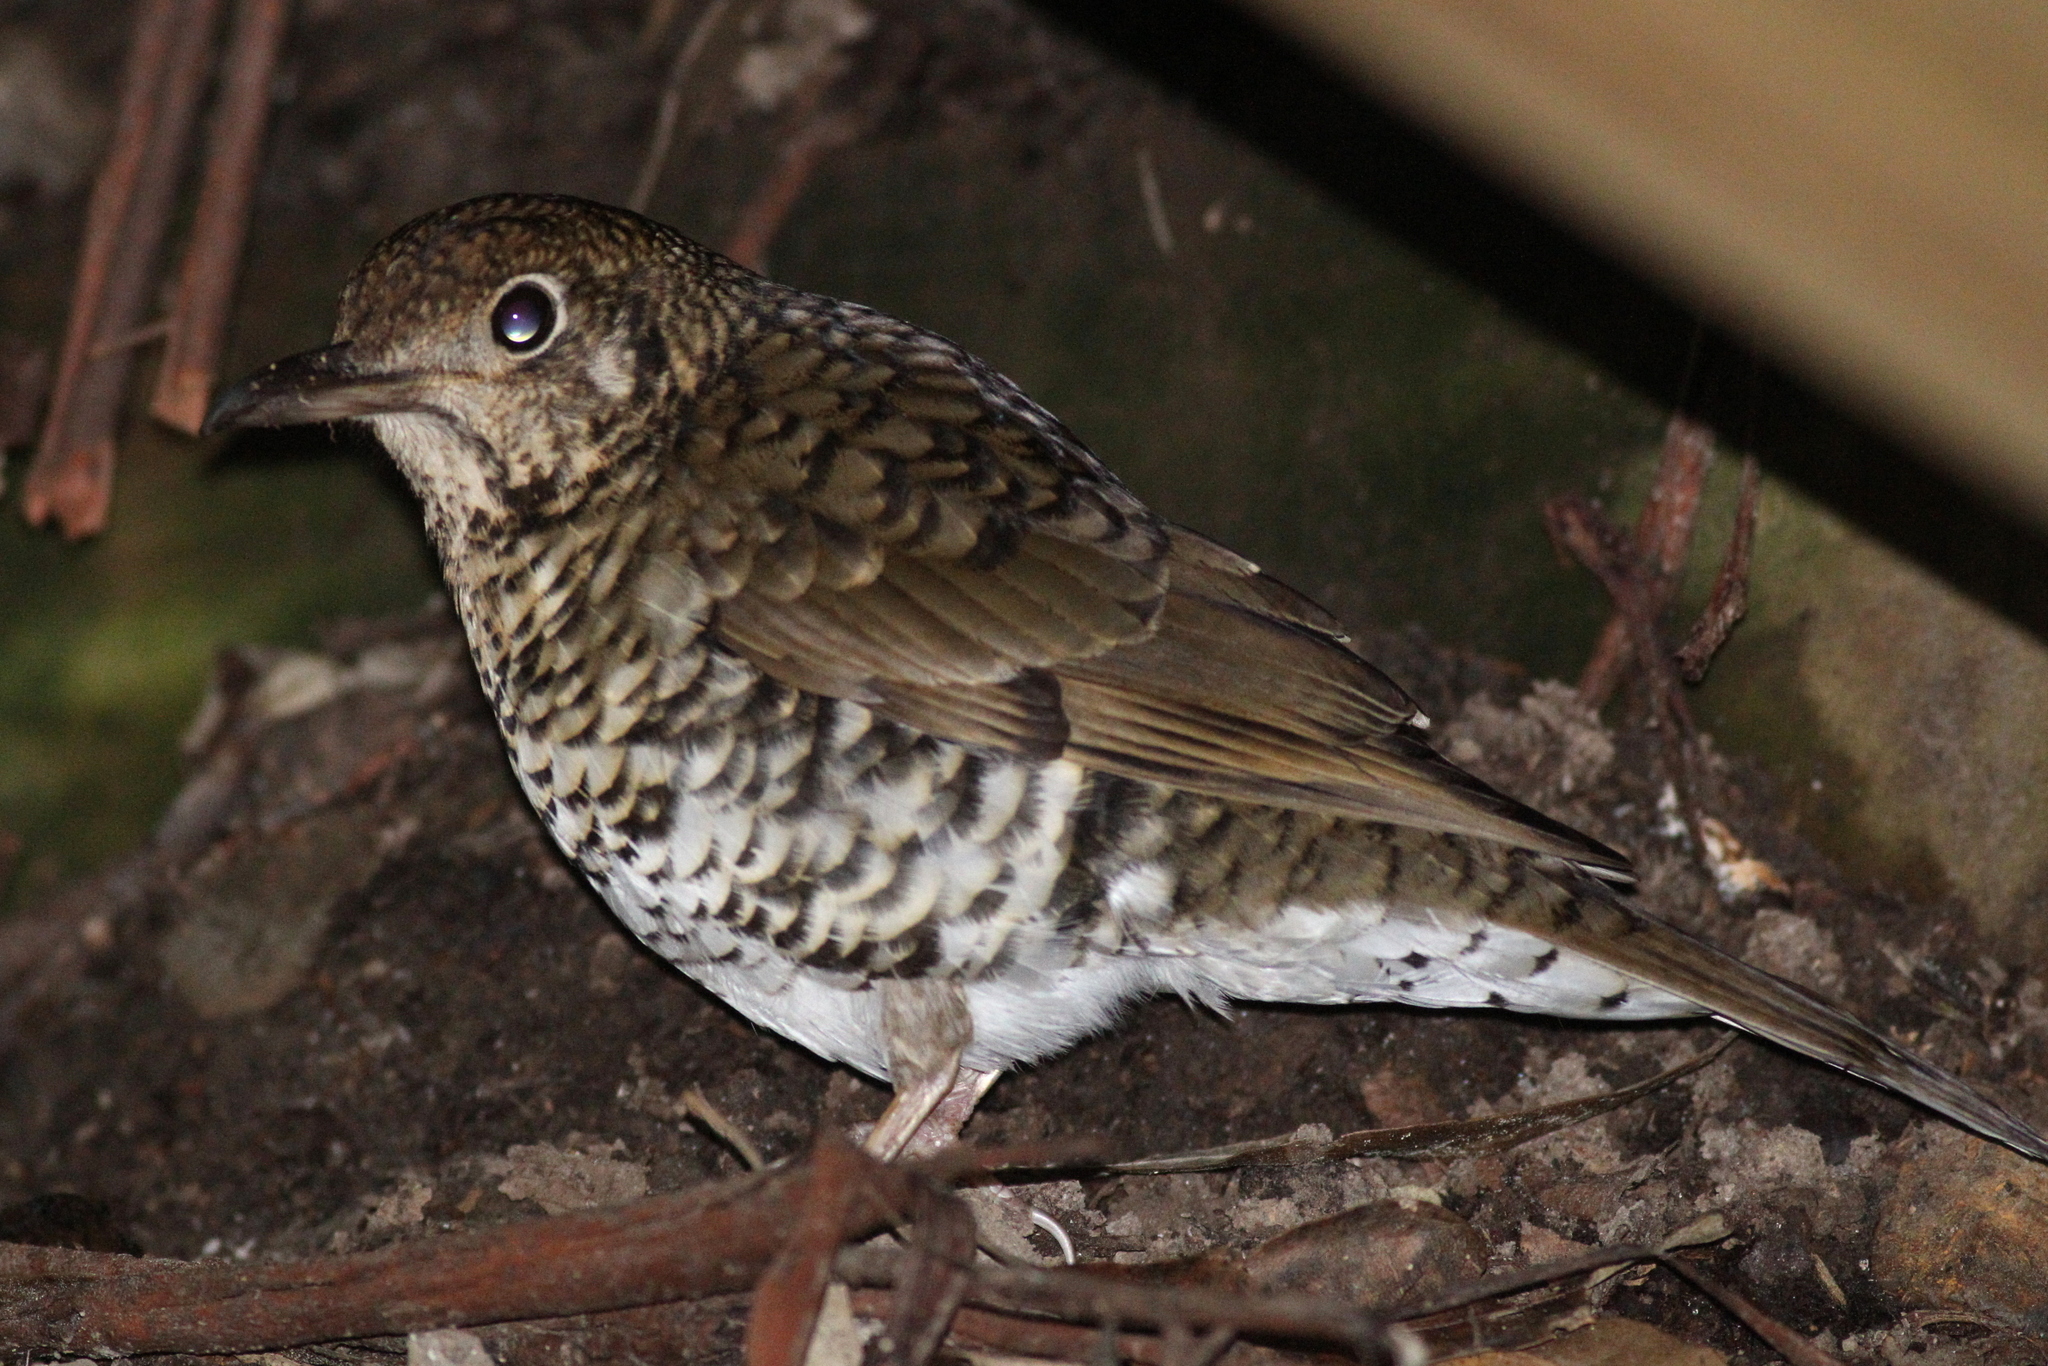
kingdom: Animalia
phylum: Chordata
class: Aves
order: Passeriformes
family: Turdidae
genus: Zoothera
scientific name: Zoothera lunulata
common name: Bassian thrush
